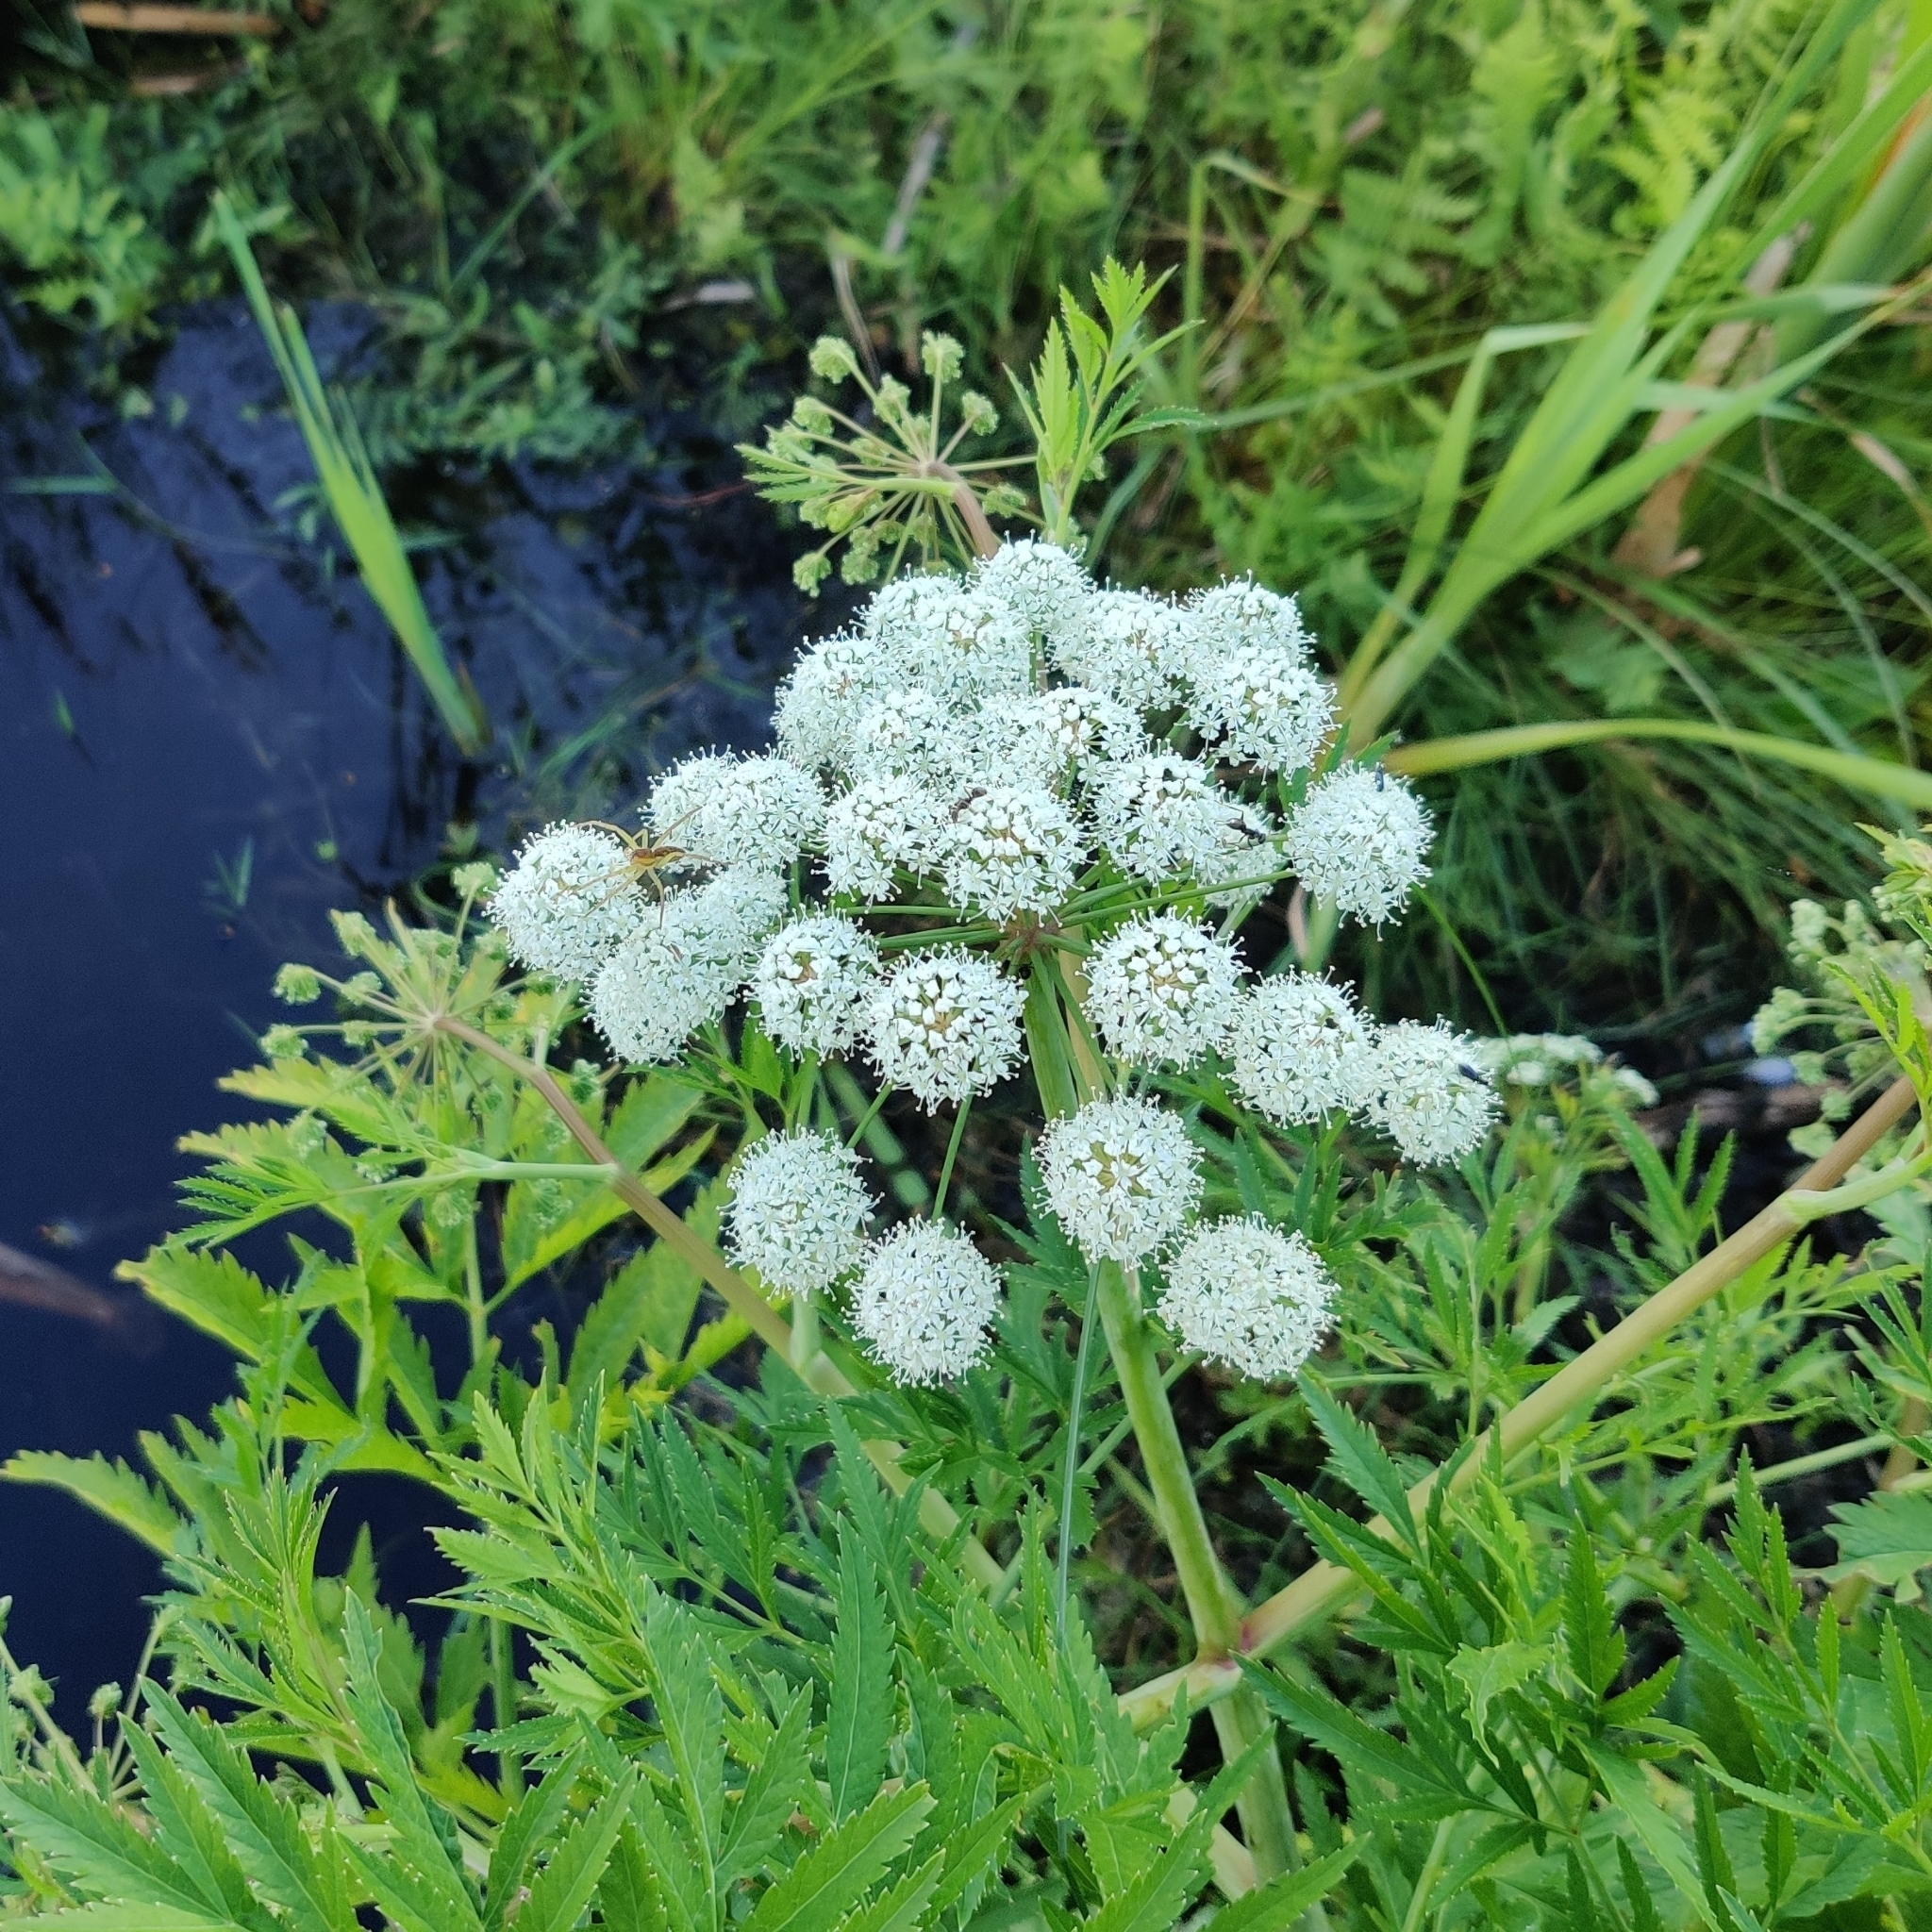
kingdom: Plantae
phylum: Tracheophyta
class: Magnoliopsida
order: Apiales
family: Apiaceae
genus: Cicuta
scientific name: Cicuta virosa
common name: Cowbane
